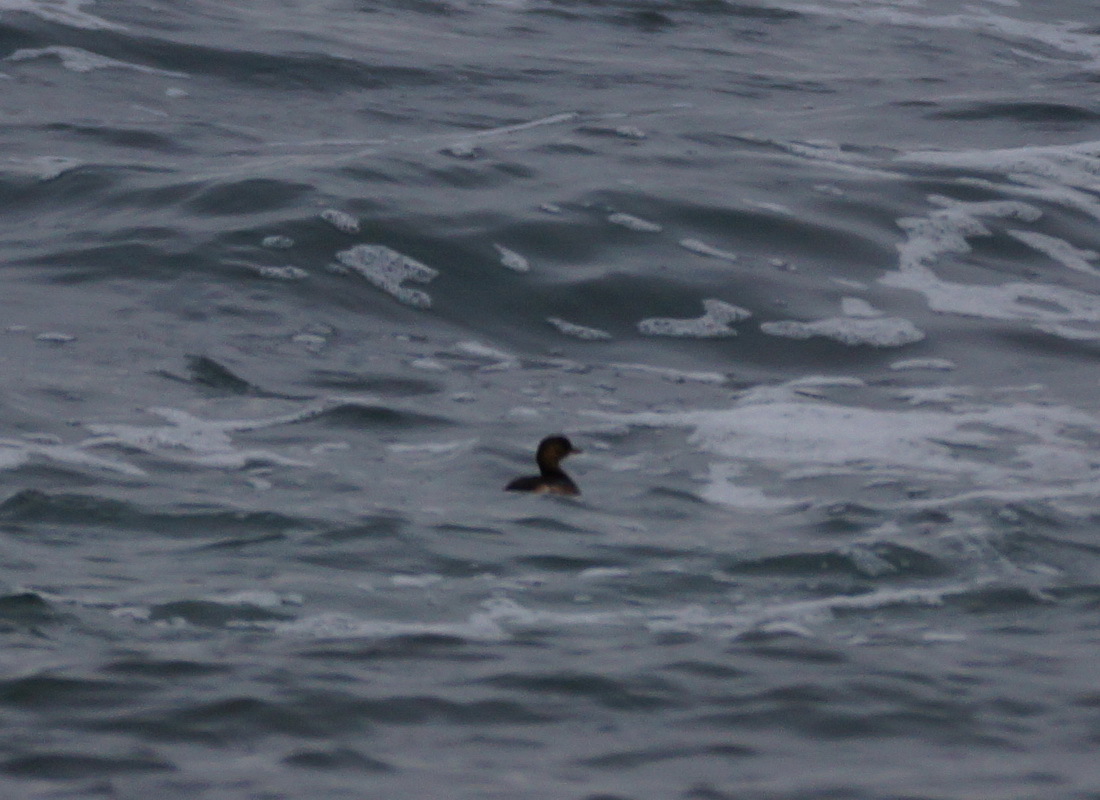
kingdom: Animalia
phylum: Chordata
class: Aves
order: Podicipediformes
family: Podicipedidae
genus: Tachybaptus
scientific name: Tachybaptus ruficollis
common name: Little grebe
